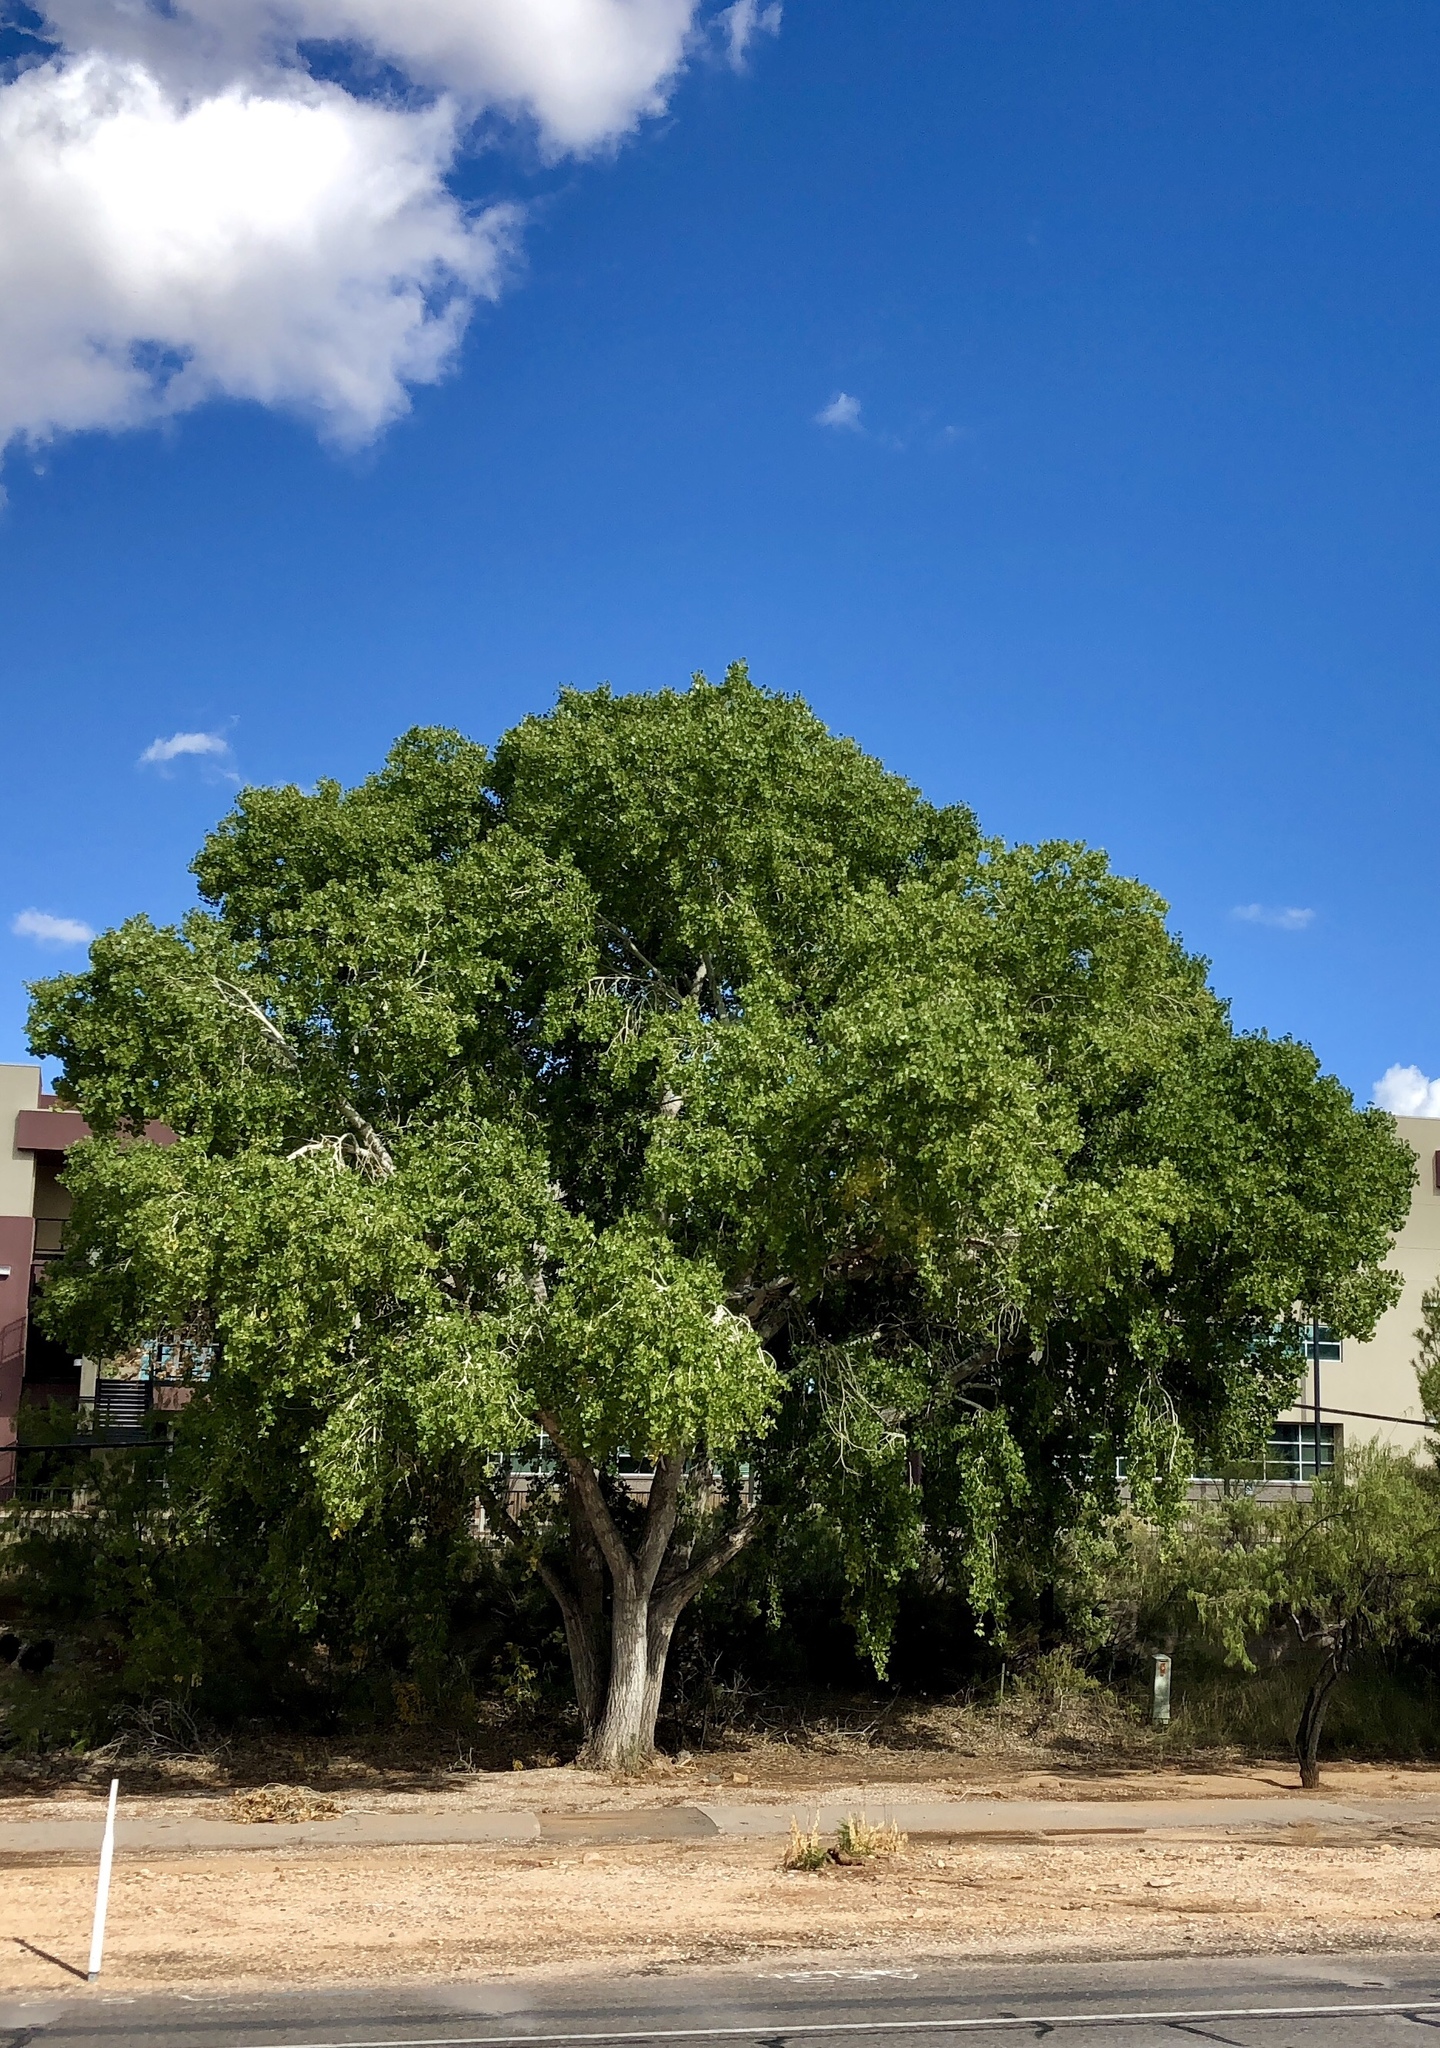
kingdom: Plantae
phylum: Tracheophyta
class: Magnoliopsida
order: Malpighiales
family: Salicaceae
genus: Populus
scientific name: Populus fremontii
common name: Fremont's cottonwood
